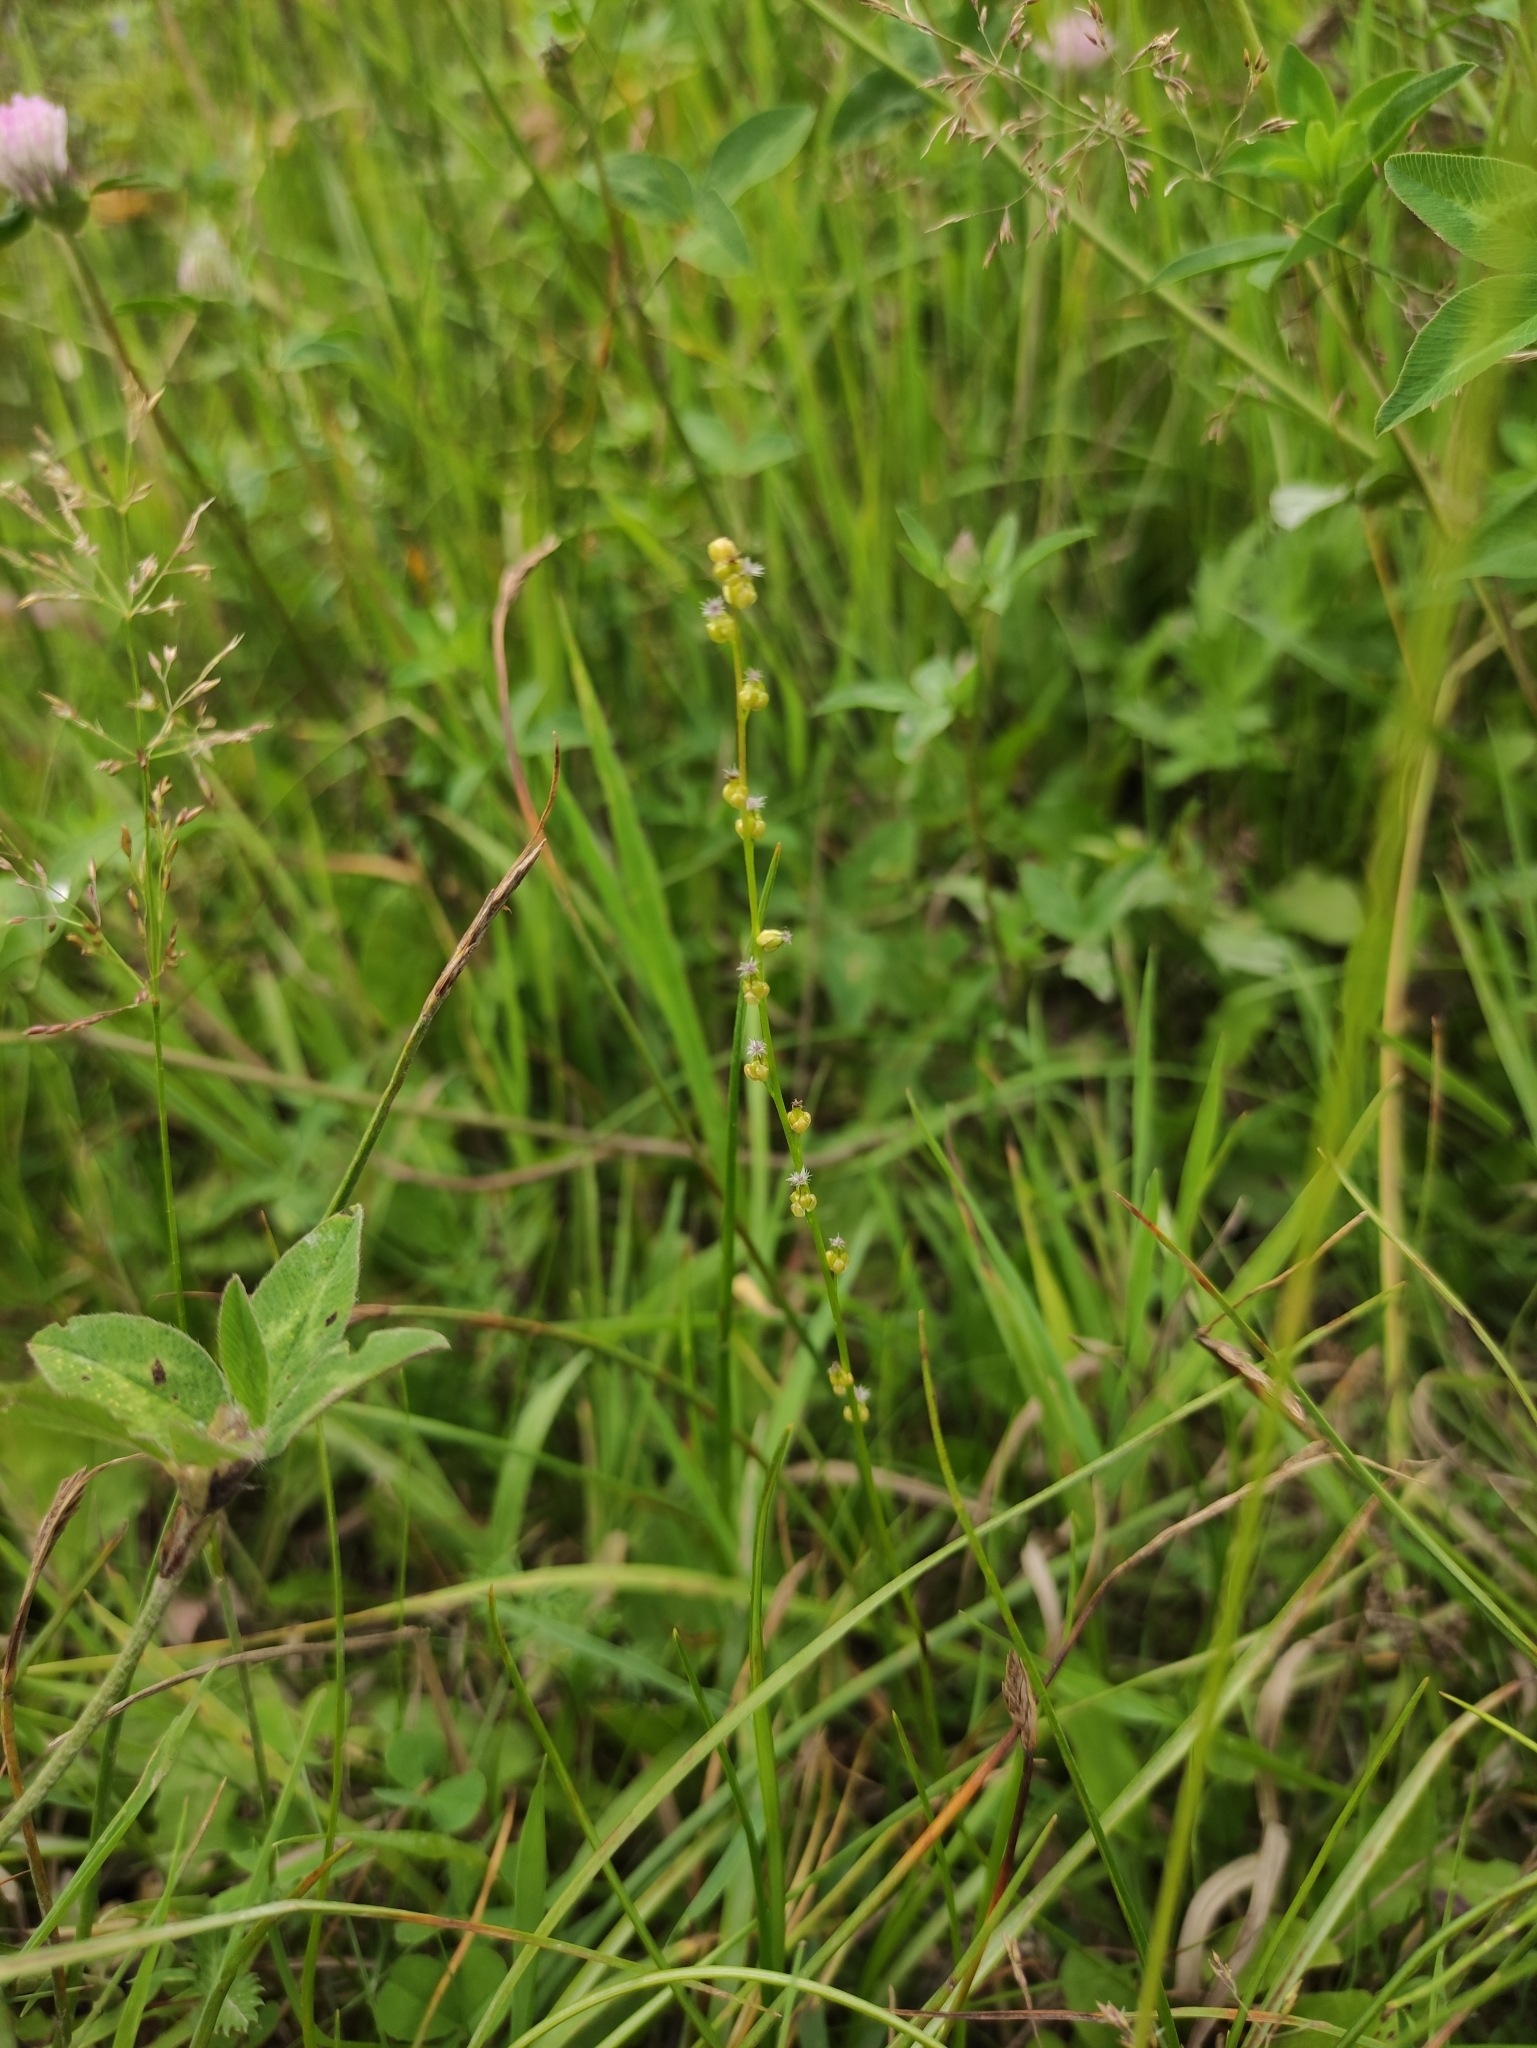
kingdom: Plantae
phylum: Tracheophyta
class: Liliopsida
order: Alismatales
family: Juncaginaceae
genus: Triglochin
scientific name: Triglochin palustris
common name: Marsh arrowgrass
